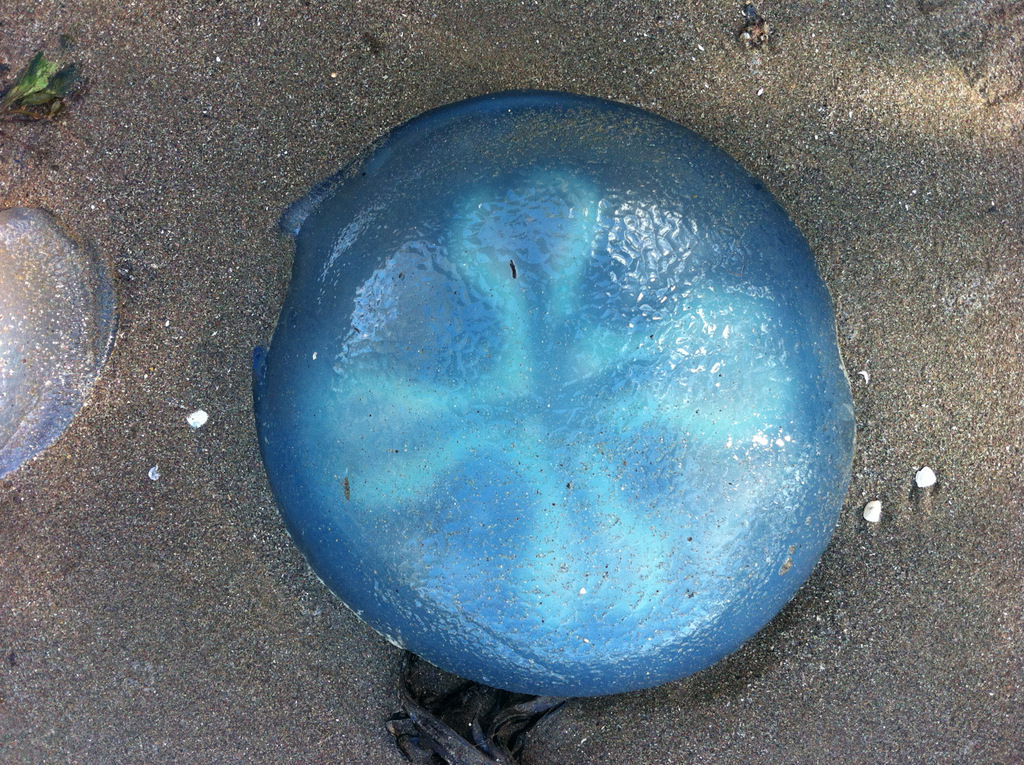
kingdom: Animalia
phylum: Cnidaria
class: Scyphozoa
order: Rhizostomeae
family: Catostylidae
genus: Catostylus
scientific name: Catostylus mosaicus
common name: Blue blubber
